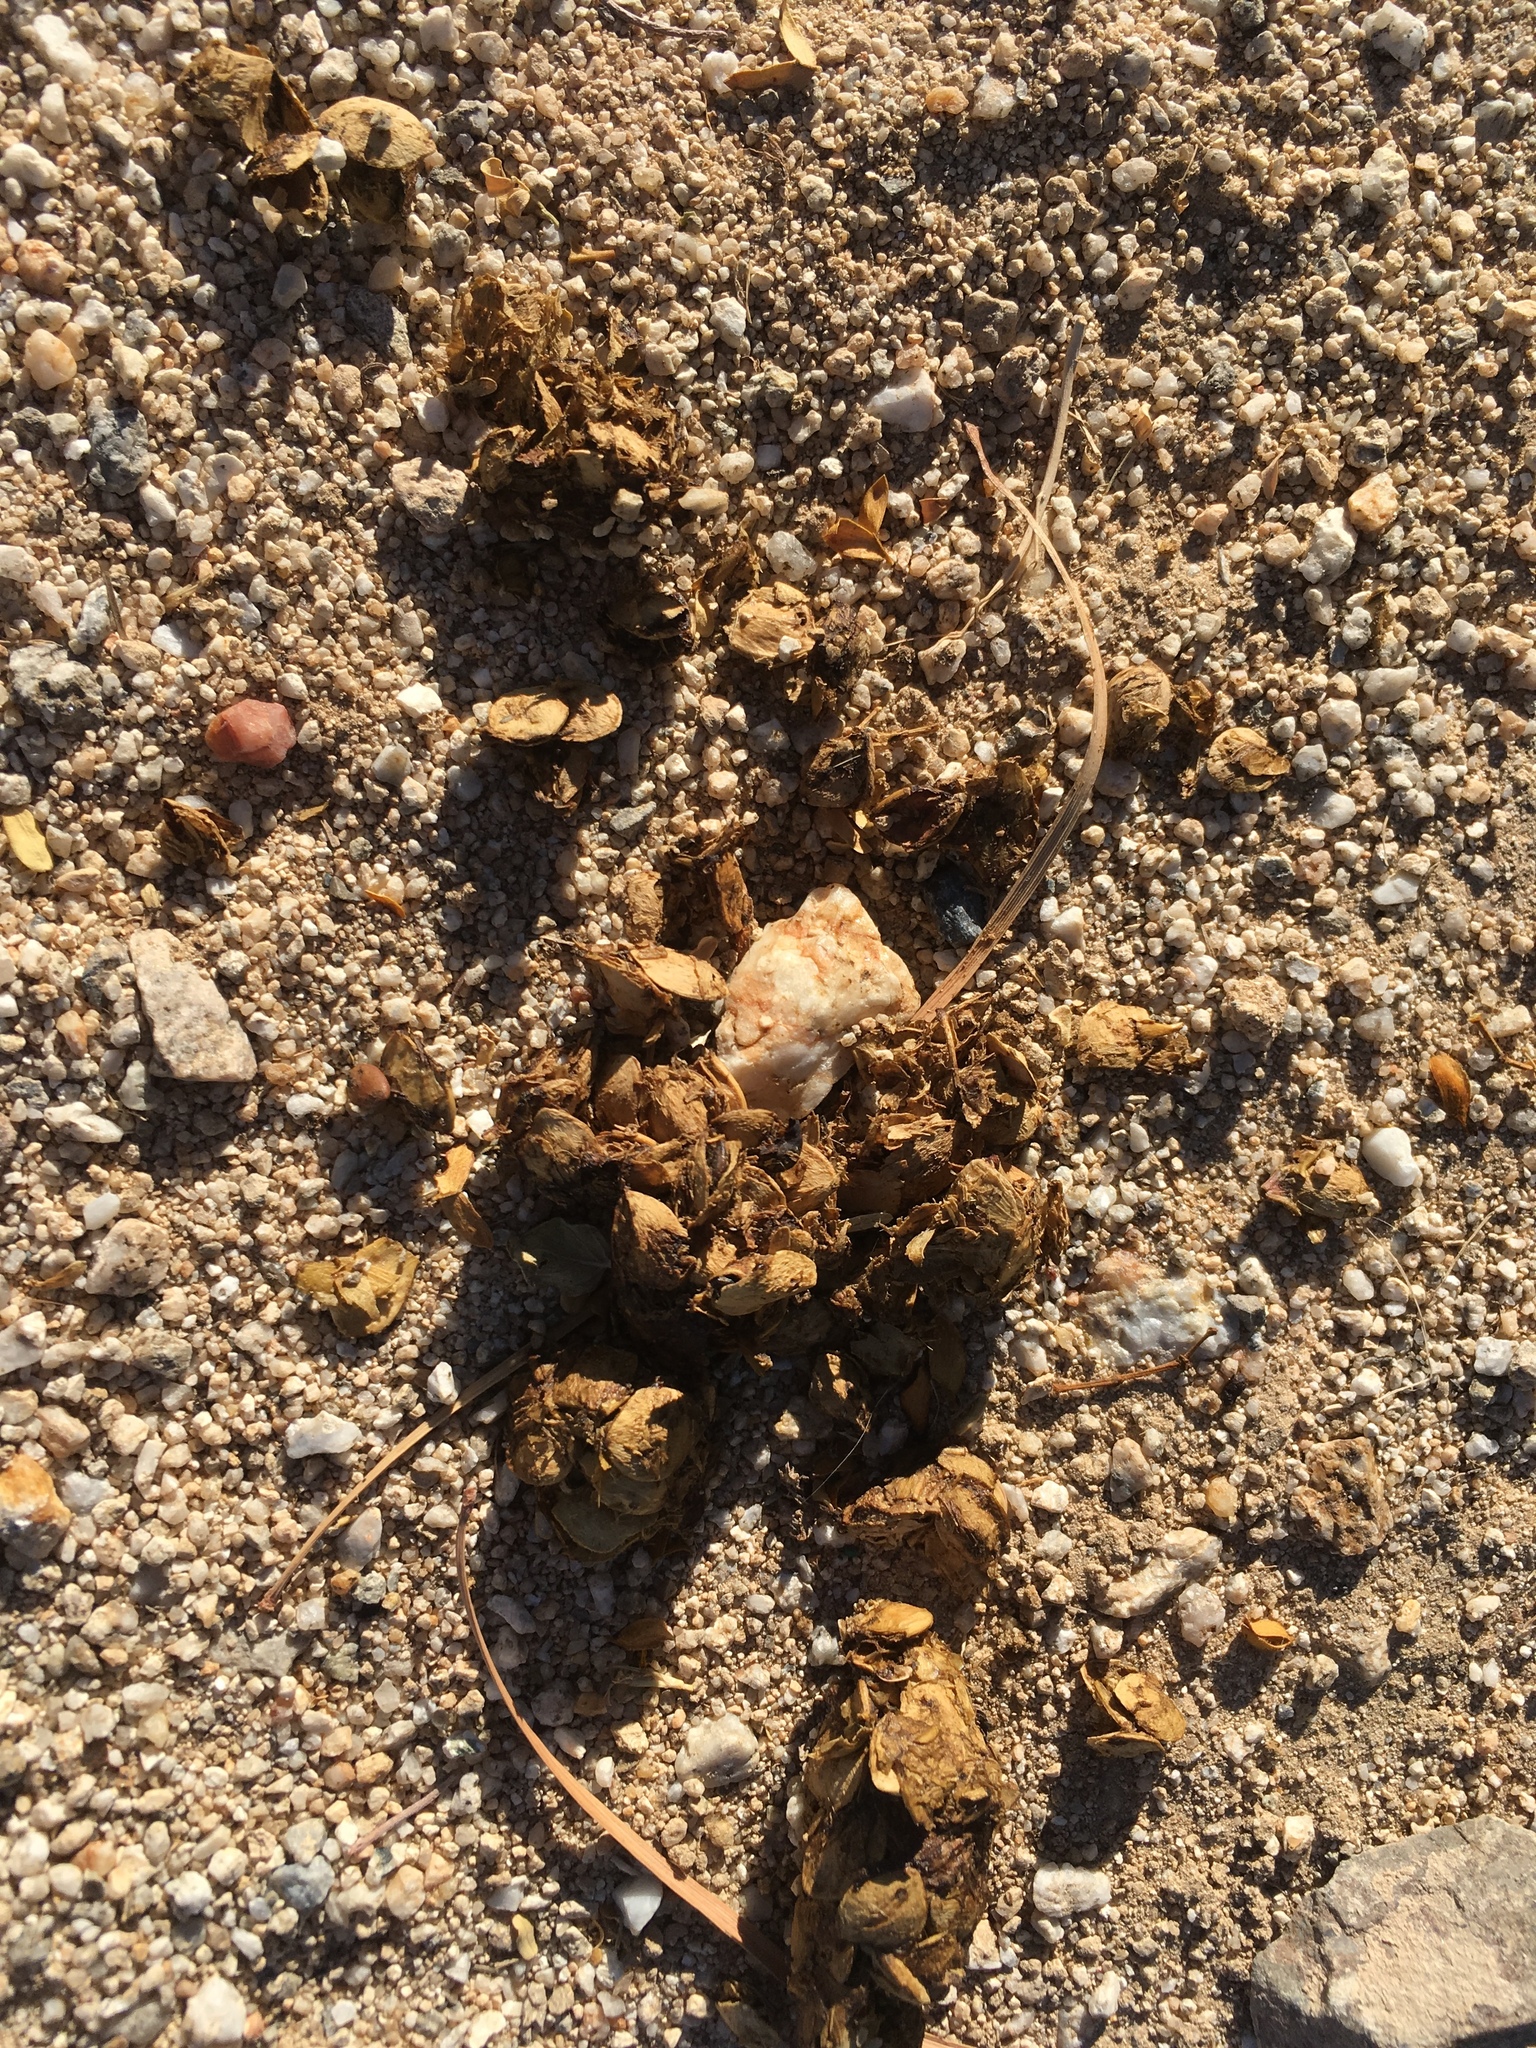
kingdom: Animalia
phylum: Chordata
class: Mammalia
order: Carnivora
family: Canidae
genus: Canis
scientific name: Canis latrans
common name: Coyote
